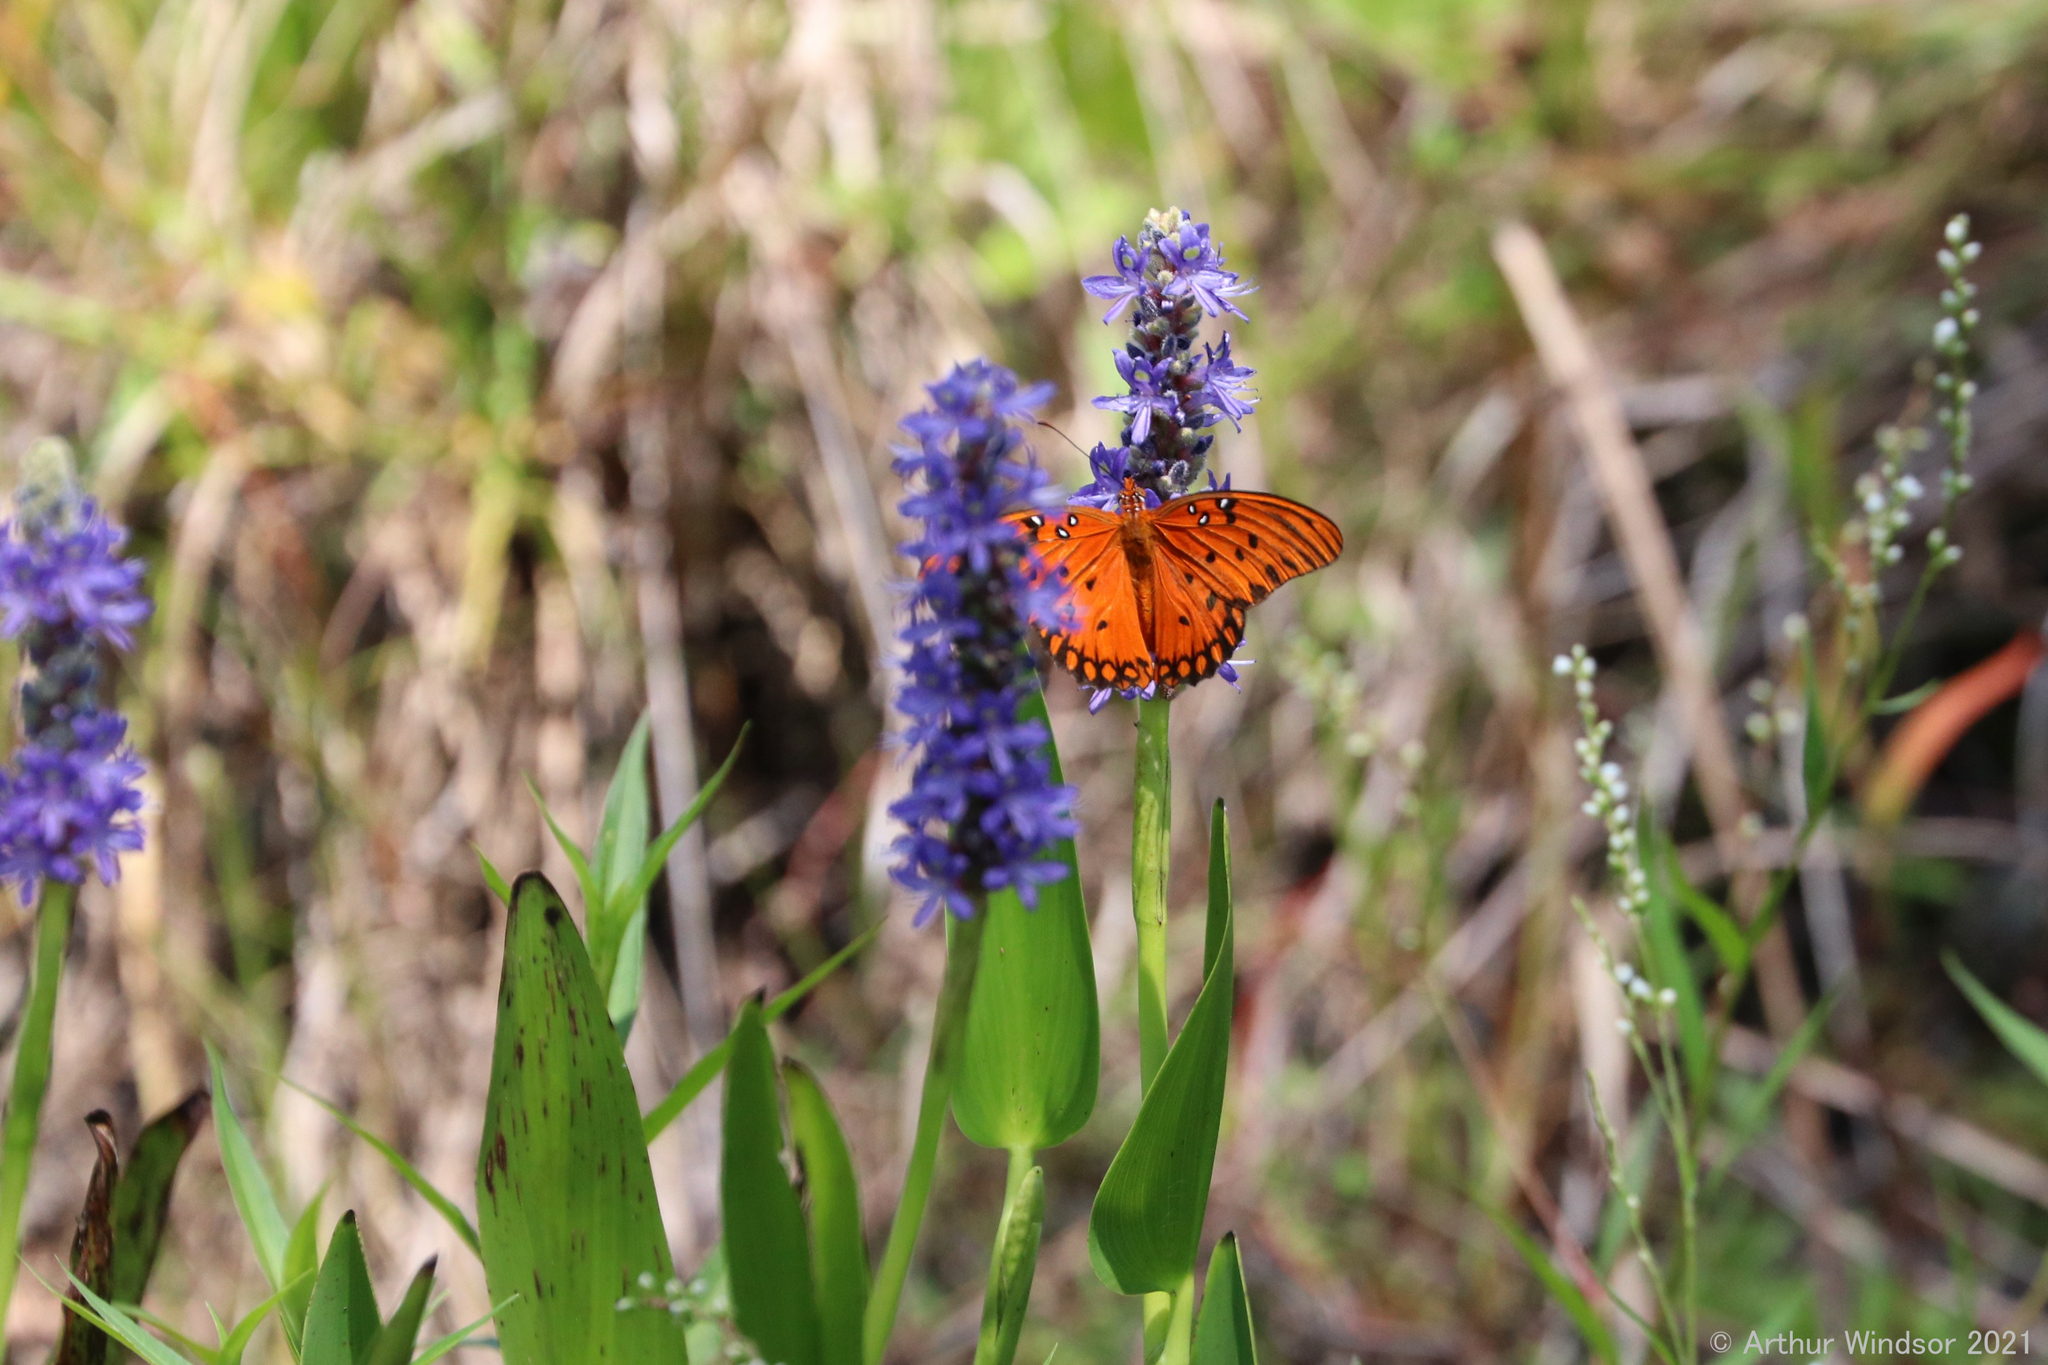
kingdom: Animalia
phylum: Arthropoda
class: Insecta
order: Lepidoptera
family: Nymphalidae
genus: Dione
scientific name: Dione vanillae
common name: Gulf fritillary
